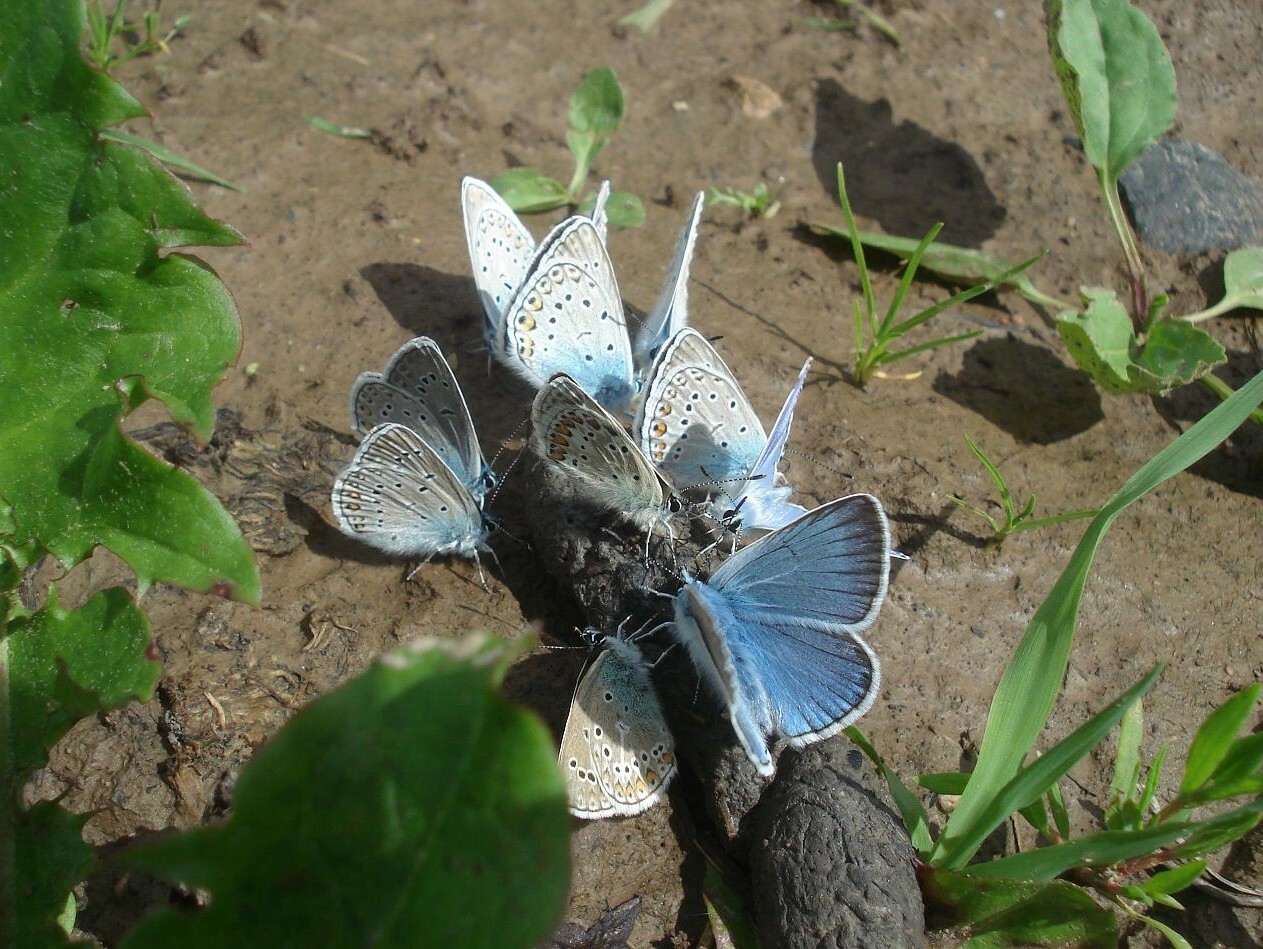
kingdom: Animalia
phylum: Arthropoda
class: Insecta
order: Lepidoptera
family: Lycaenidae
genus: Plebejus
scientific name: Plebejus amanda
